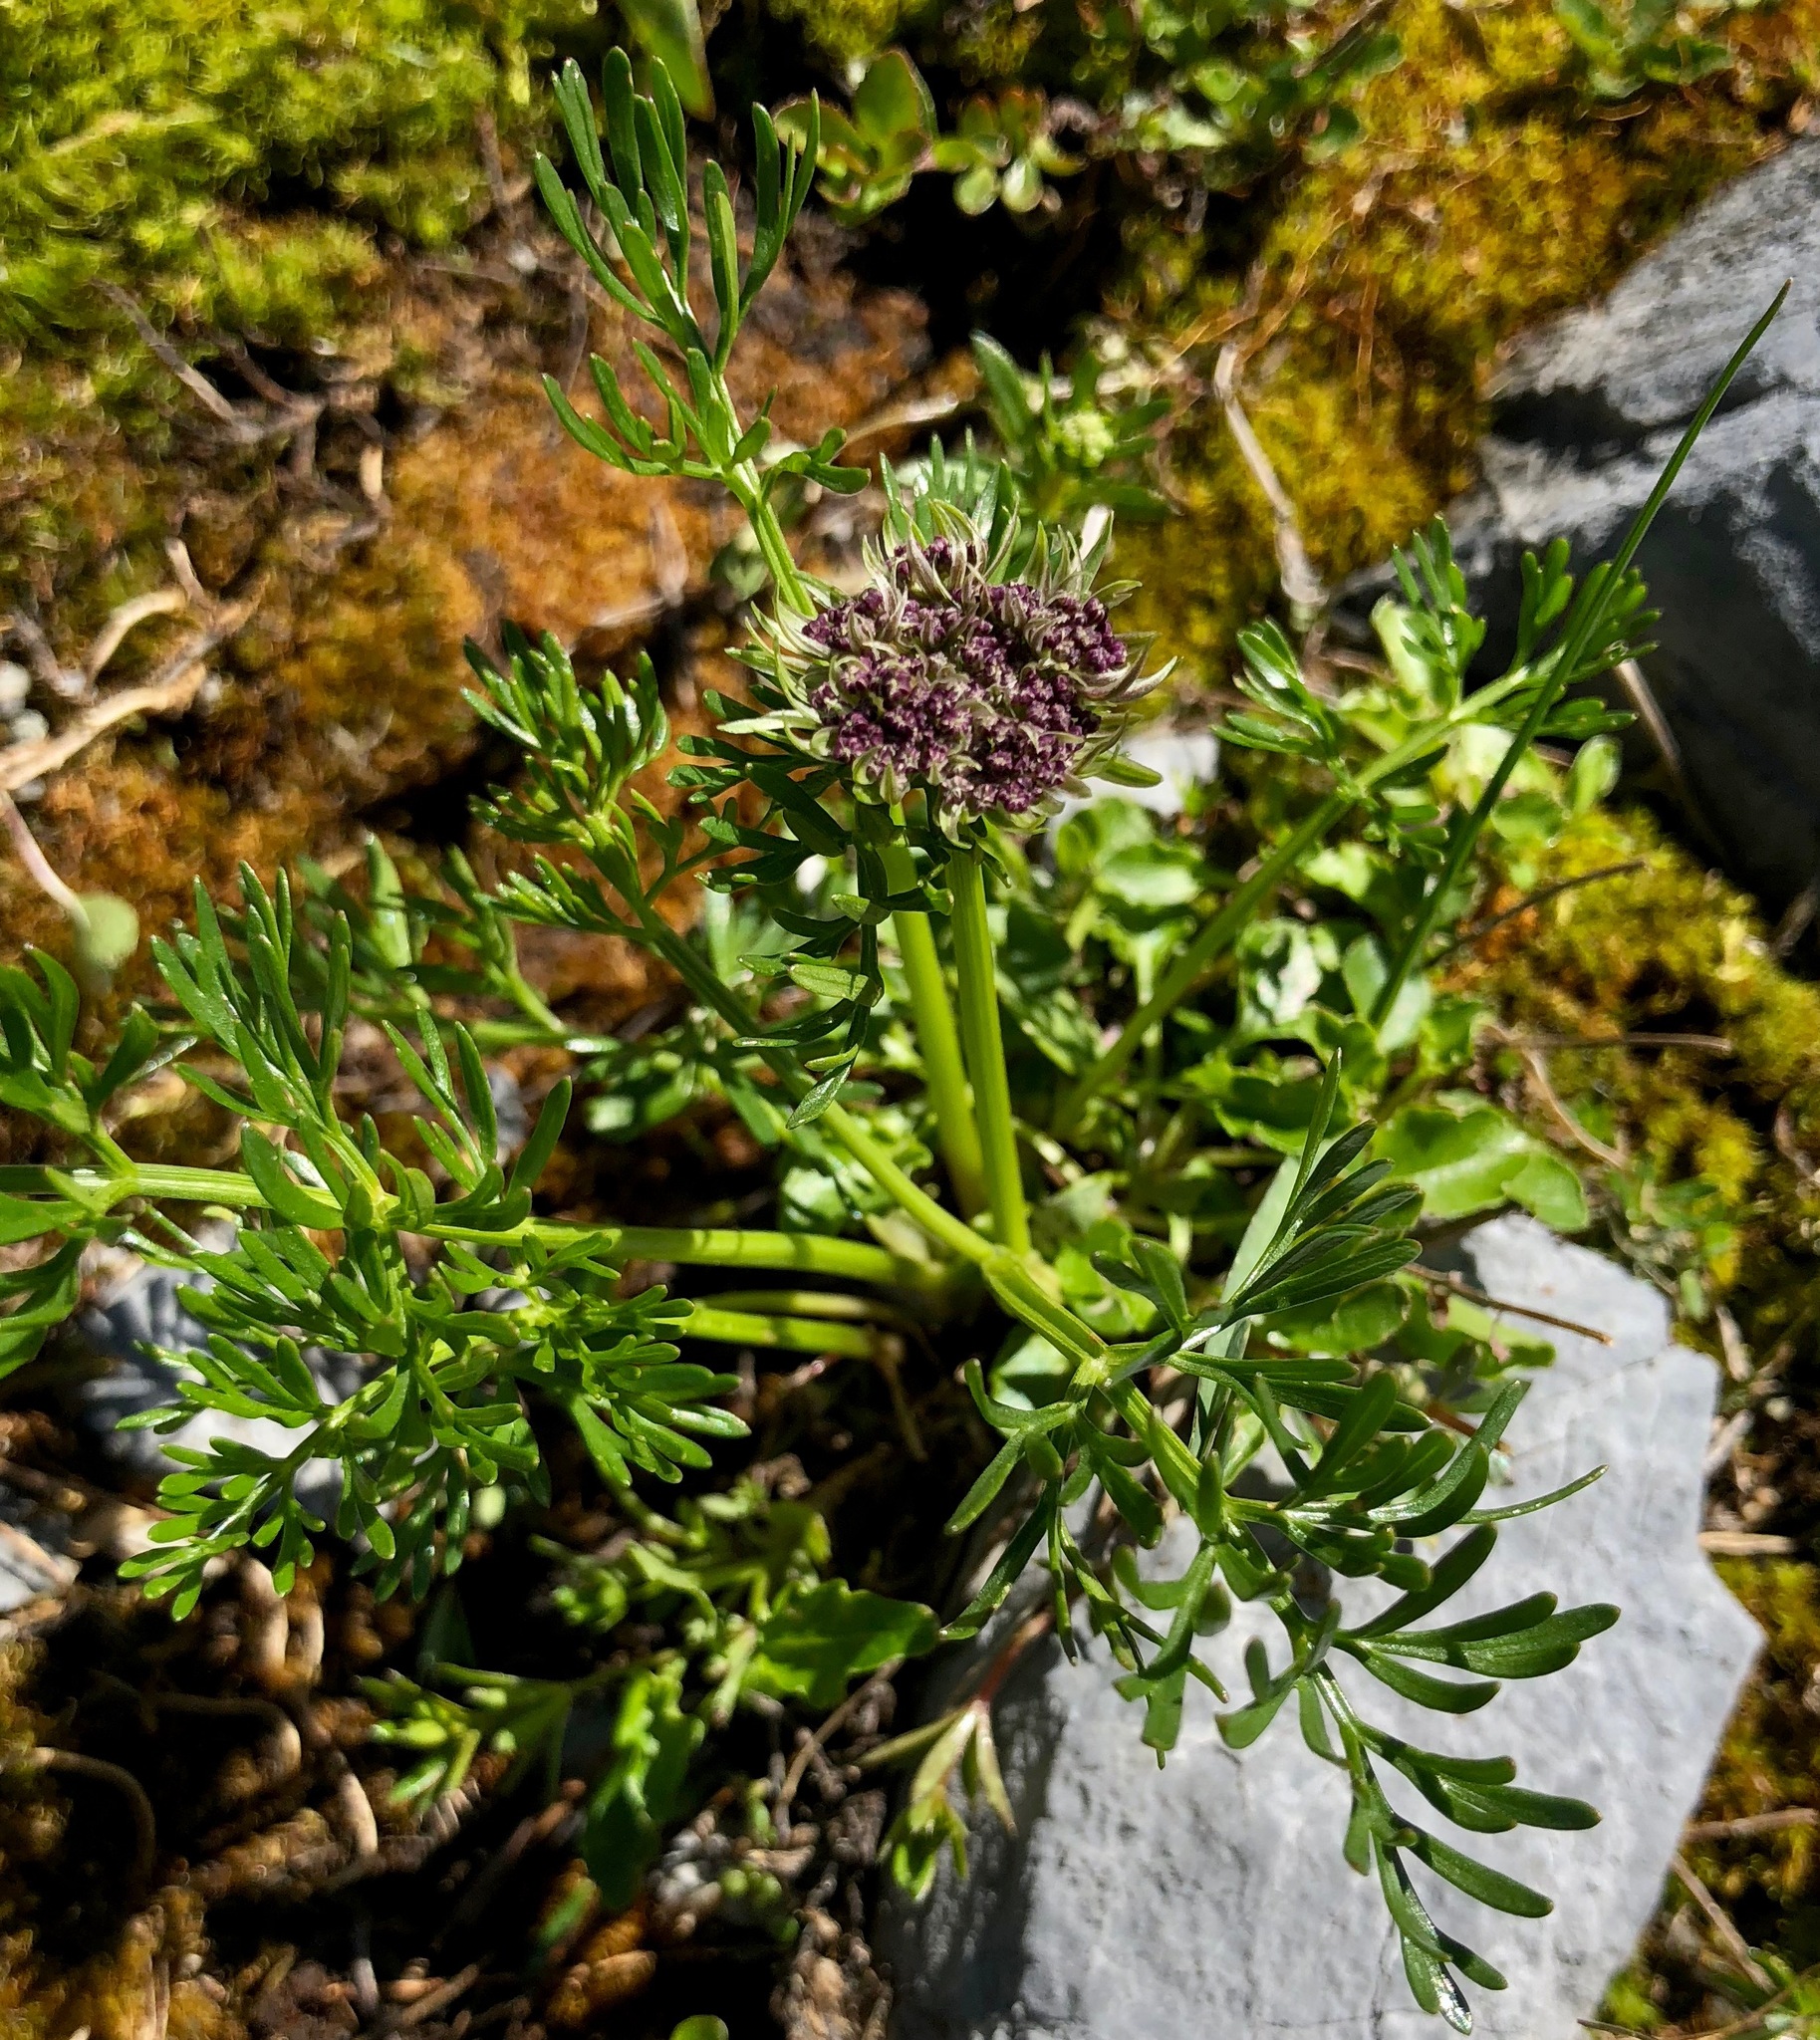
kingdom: Plantae
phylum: Tracheophyta
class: Magnoliopsida
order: Apiales
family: Apiaceae
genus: Pachypleurum
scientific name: Pachypleurum mutellinoides
